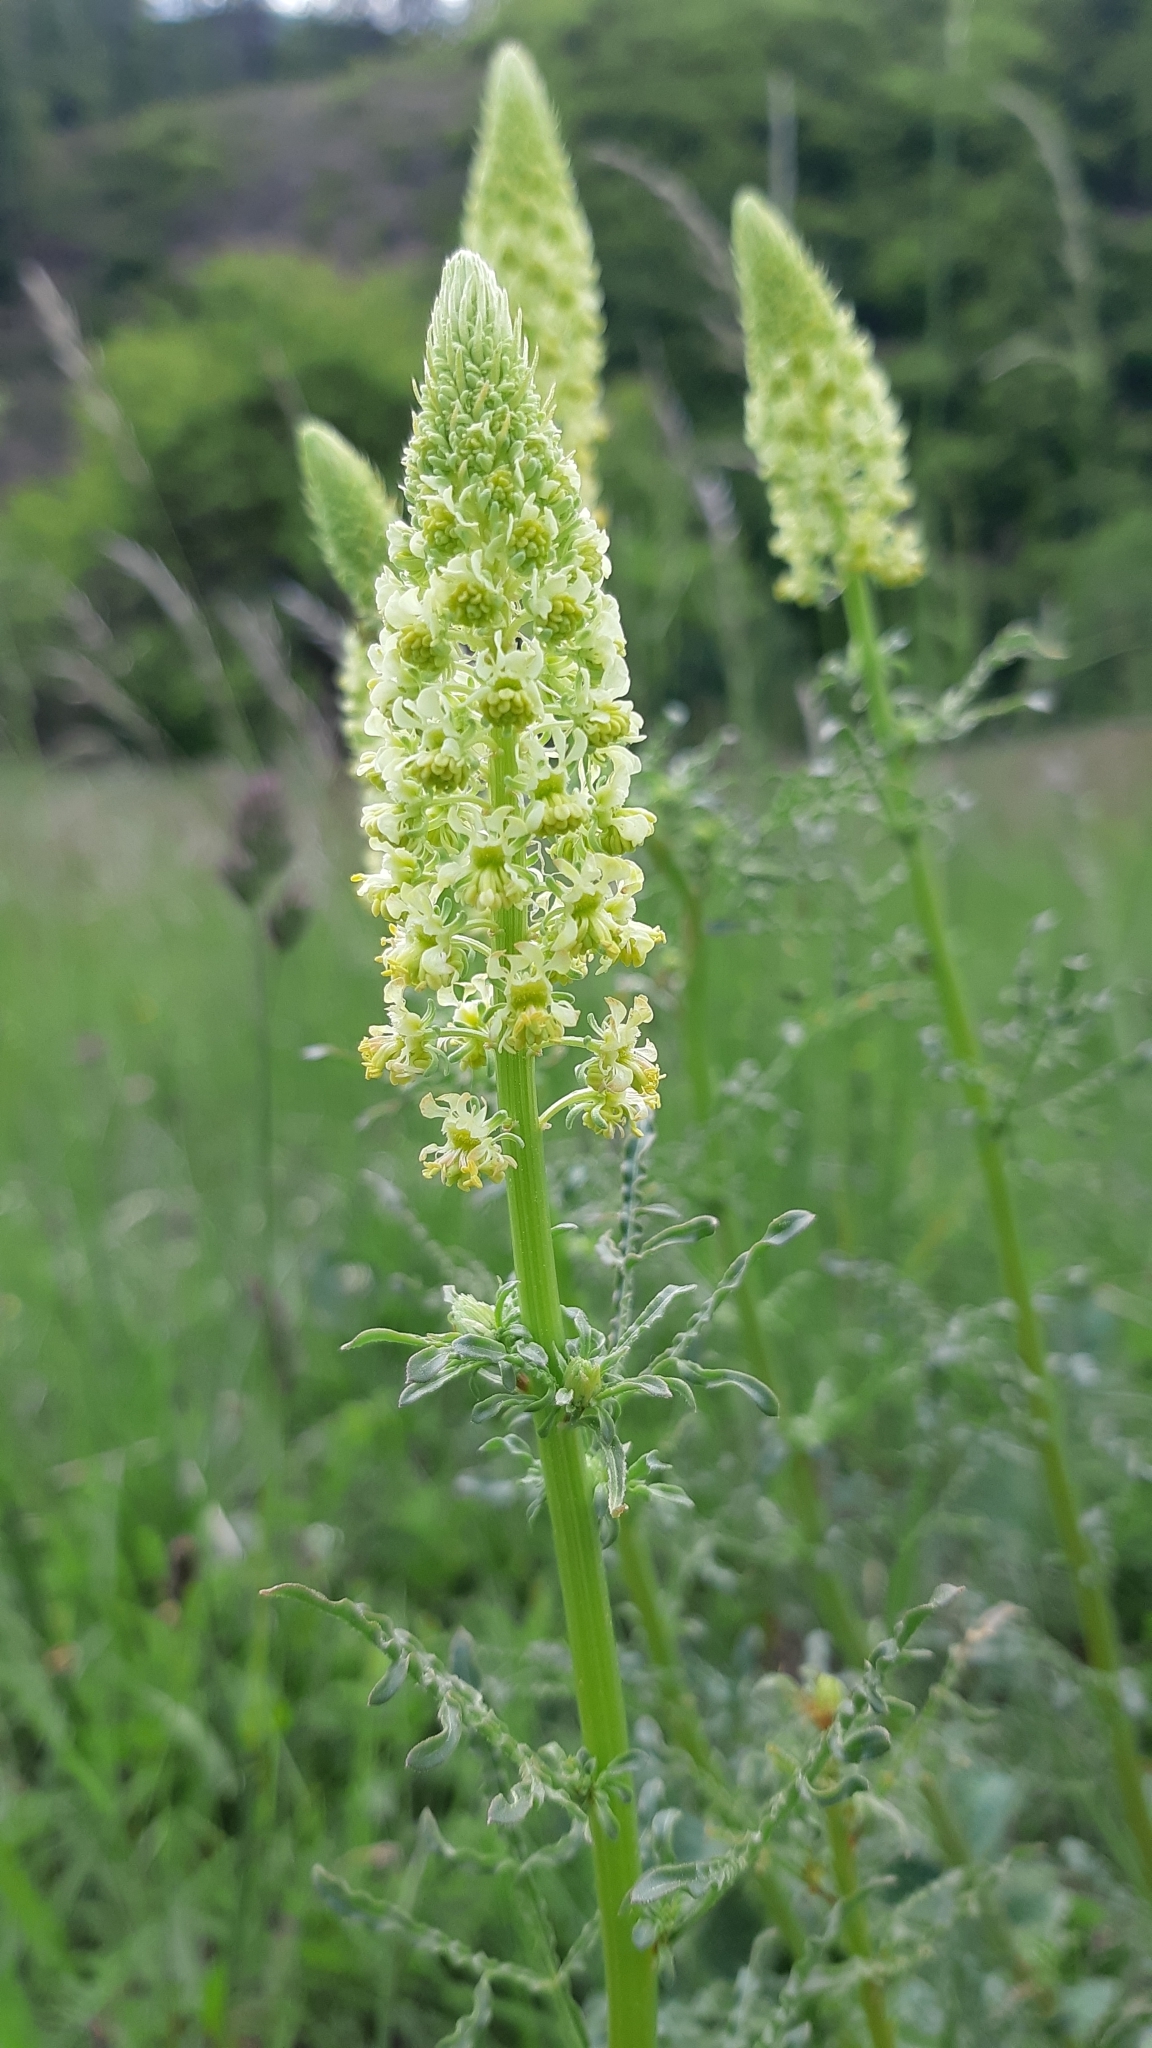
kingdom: Plantae
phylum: Tracheophyta
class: Magnoliopsida
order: Brassicales
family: Resedaceae
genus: Reseda
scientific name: Reseda lutea
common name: Wild mignonette
